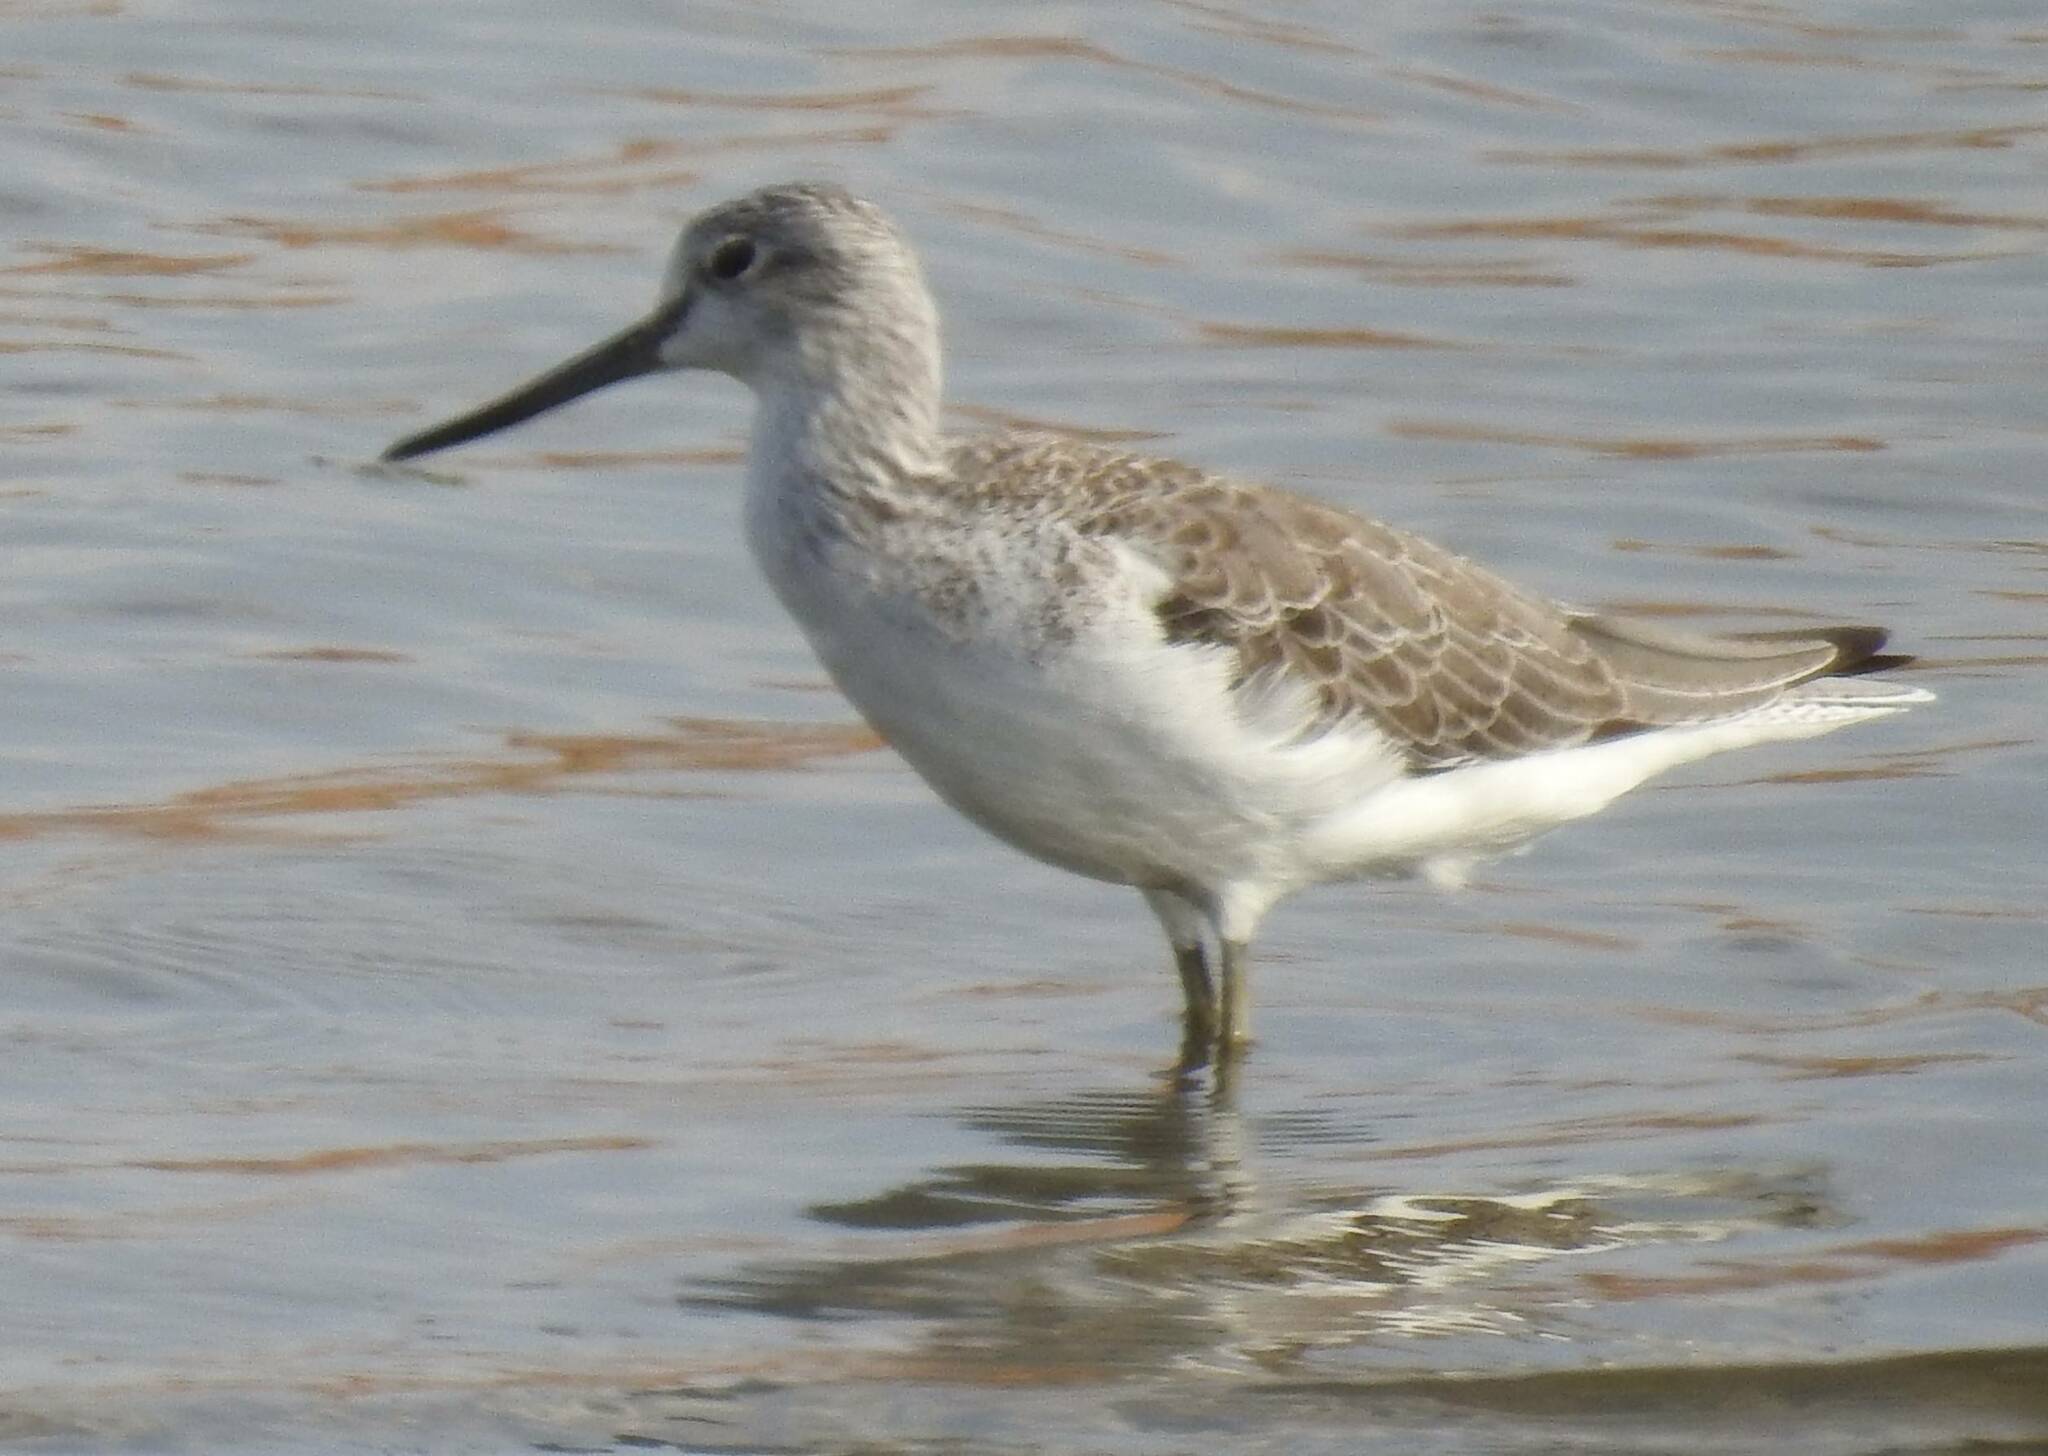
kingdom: Animalia
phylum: Chordata
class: Aves
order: Charadriiformes
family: Scolopacidae
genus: Tringa
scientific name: Tringa nebularia
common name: Common greenshank
